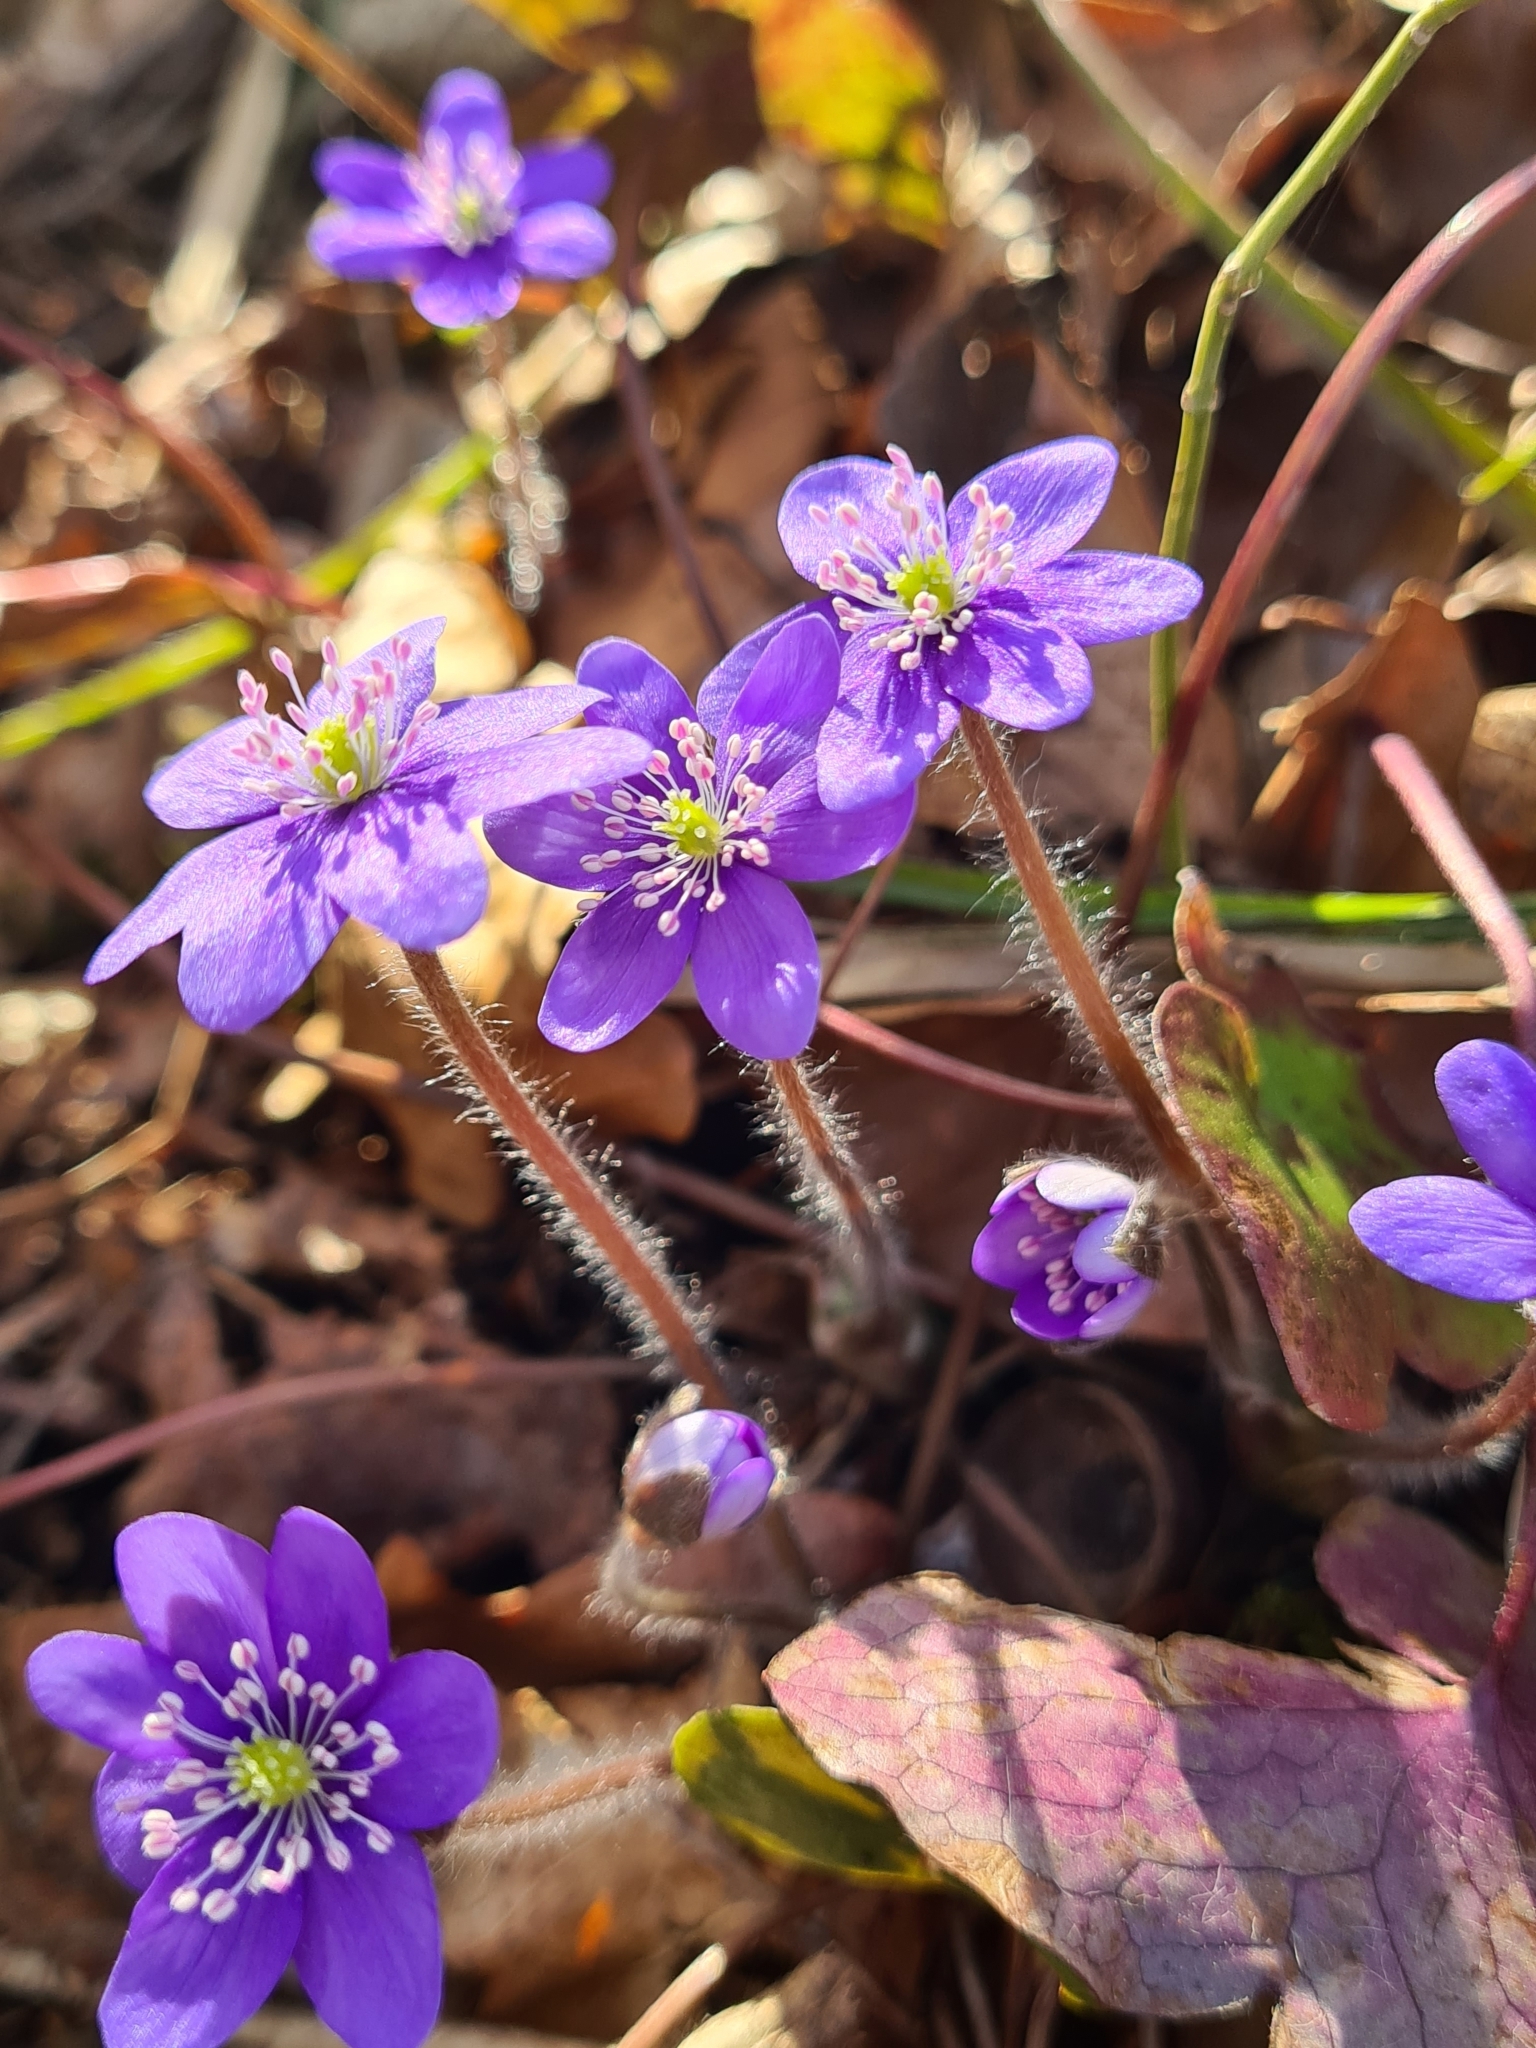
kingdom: Plantae
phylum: Tracheophyta
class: Magnoliopsida
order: Ranunculales
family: Ranunculaceae
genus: Hepatica
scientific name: Hepatica nobilis
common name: Liverleaf
